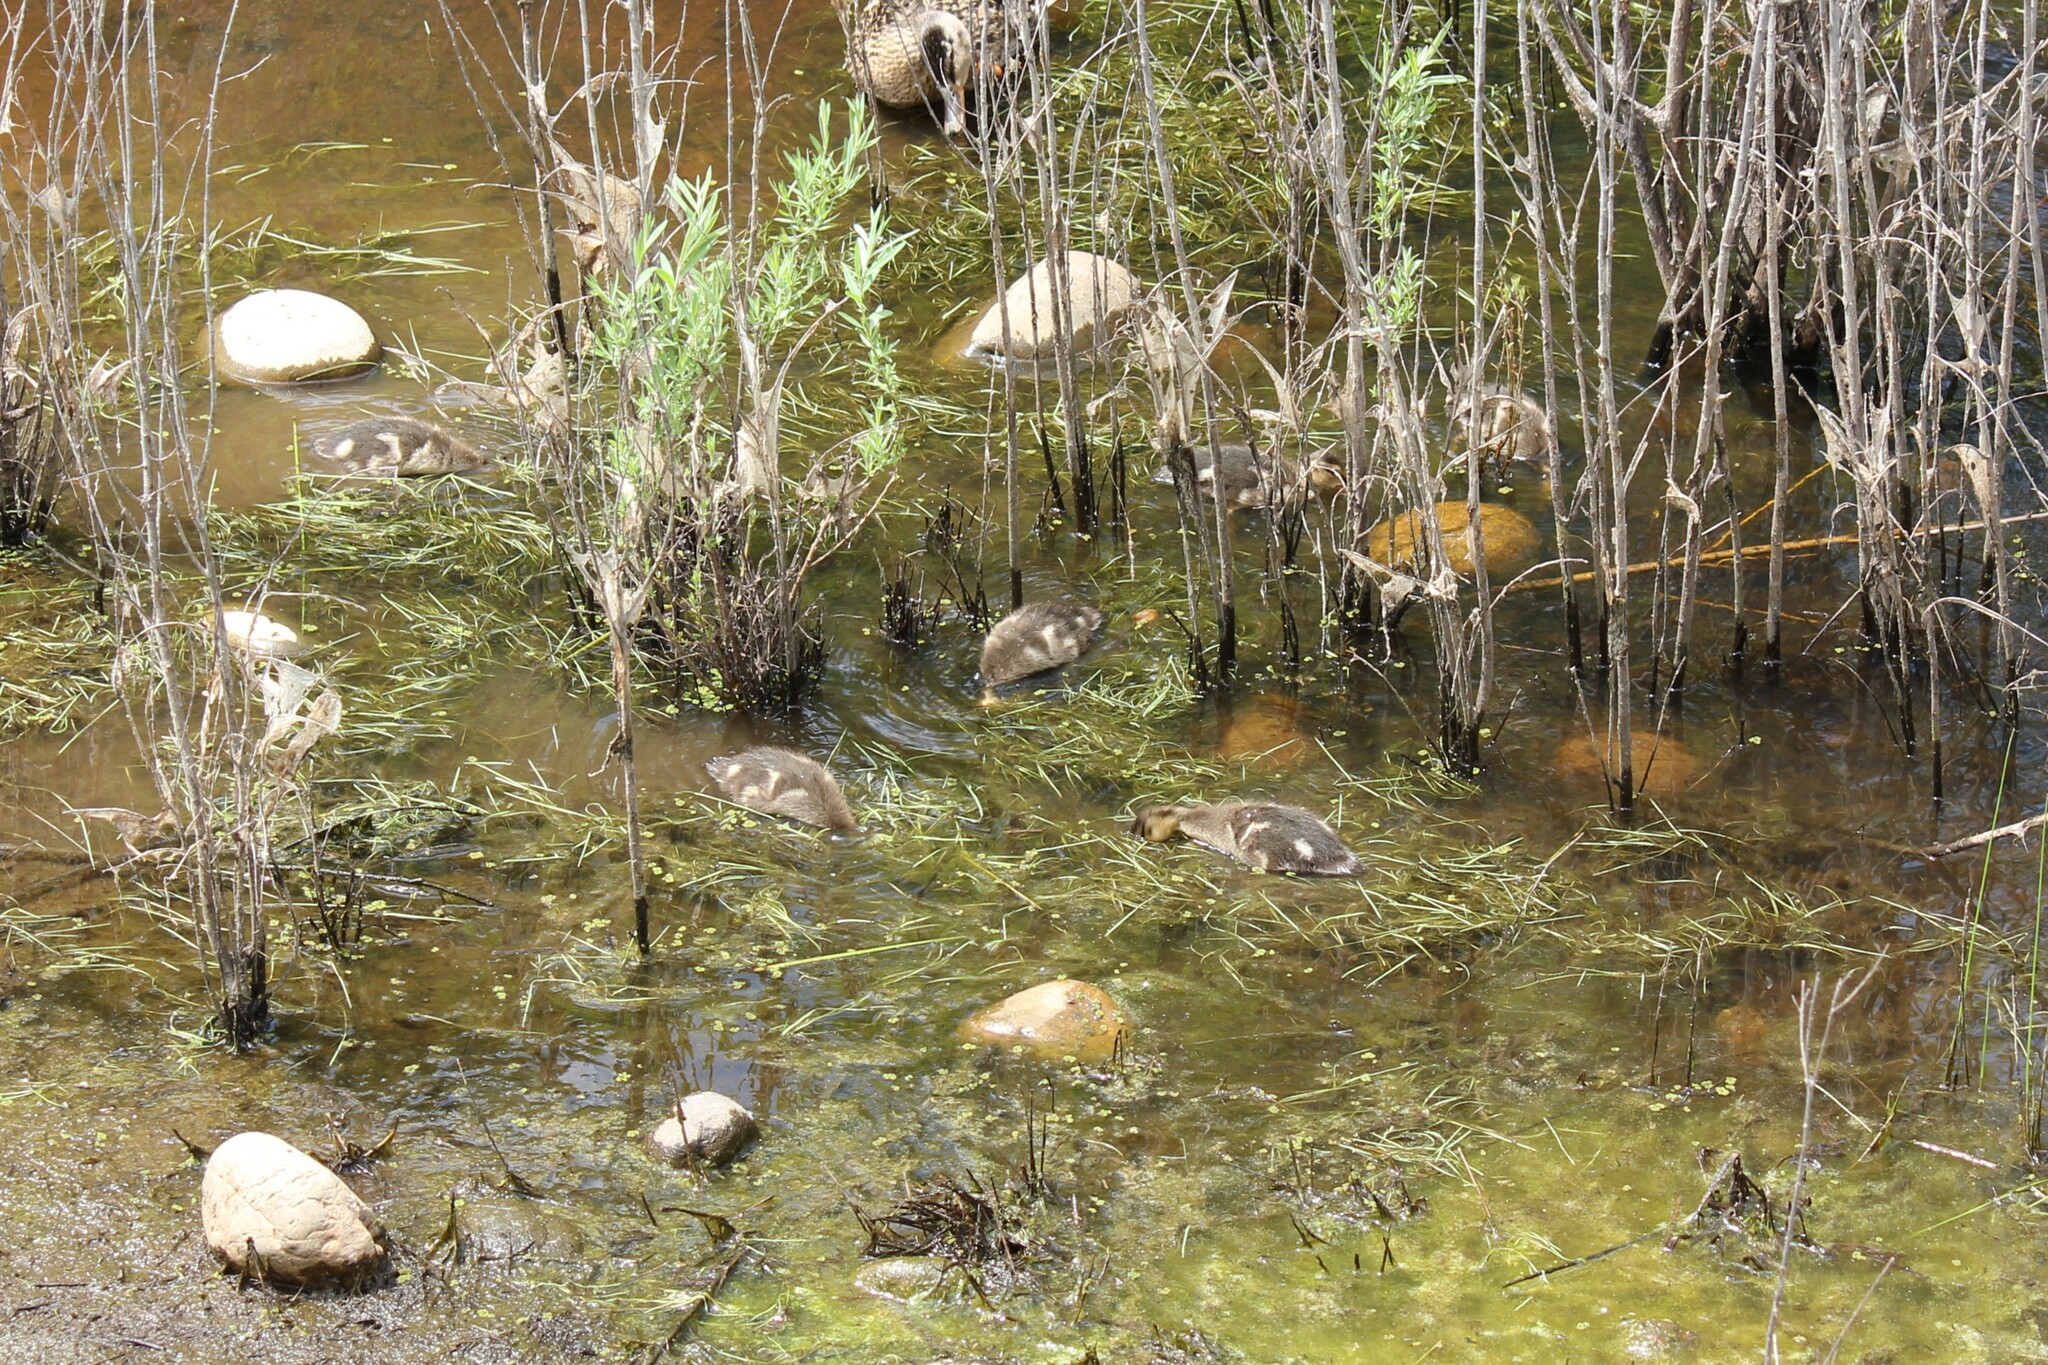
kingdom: Animalia
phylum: Chordata
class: Aves
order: Anseriformes
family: Anatidae
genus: Anas
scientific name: Anas platyrhynchos
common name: Mallard
